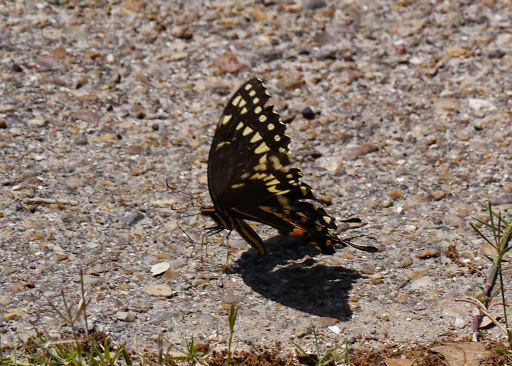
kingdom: Animalia
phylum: Arthropoda
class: Insecta
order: Lepidoptera
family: Papilionidae
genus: Papilio
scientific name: Papilio palamedes
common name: Palamedes swallowtail
